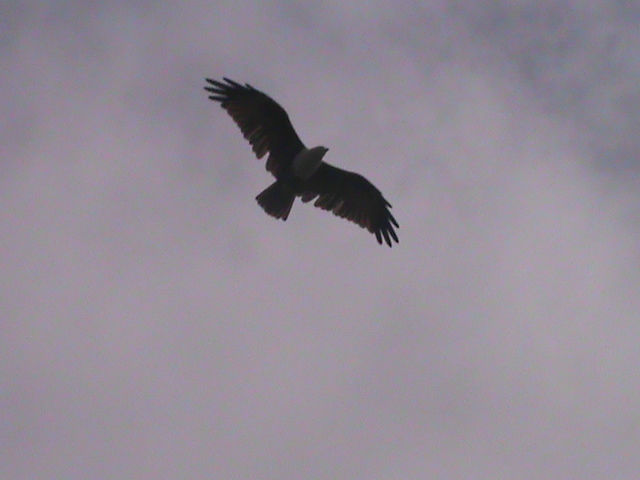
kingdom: Animalia
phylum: Chordata
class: Aves
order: Accipitriformes
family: Accipitridae
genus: Haliastur
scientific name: Haliastur indus
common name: Brahminy kite
